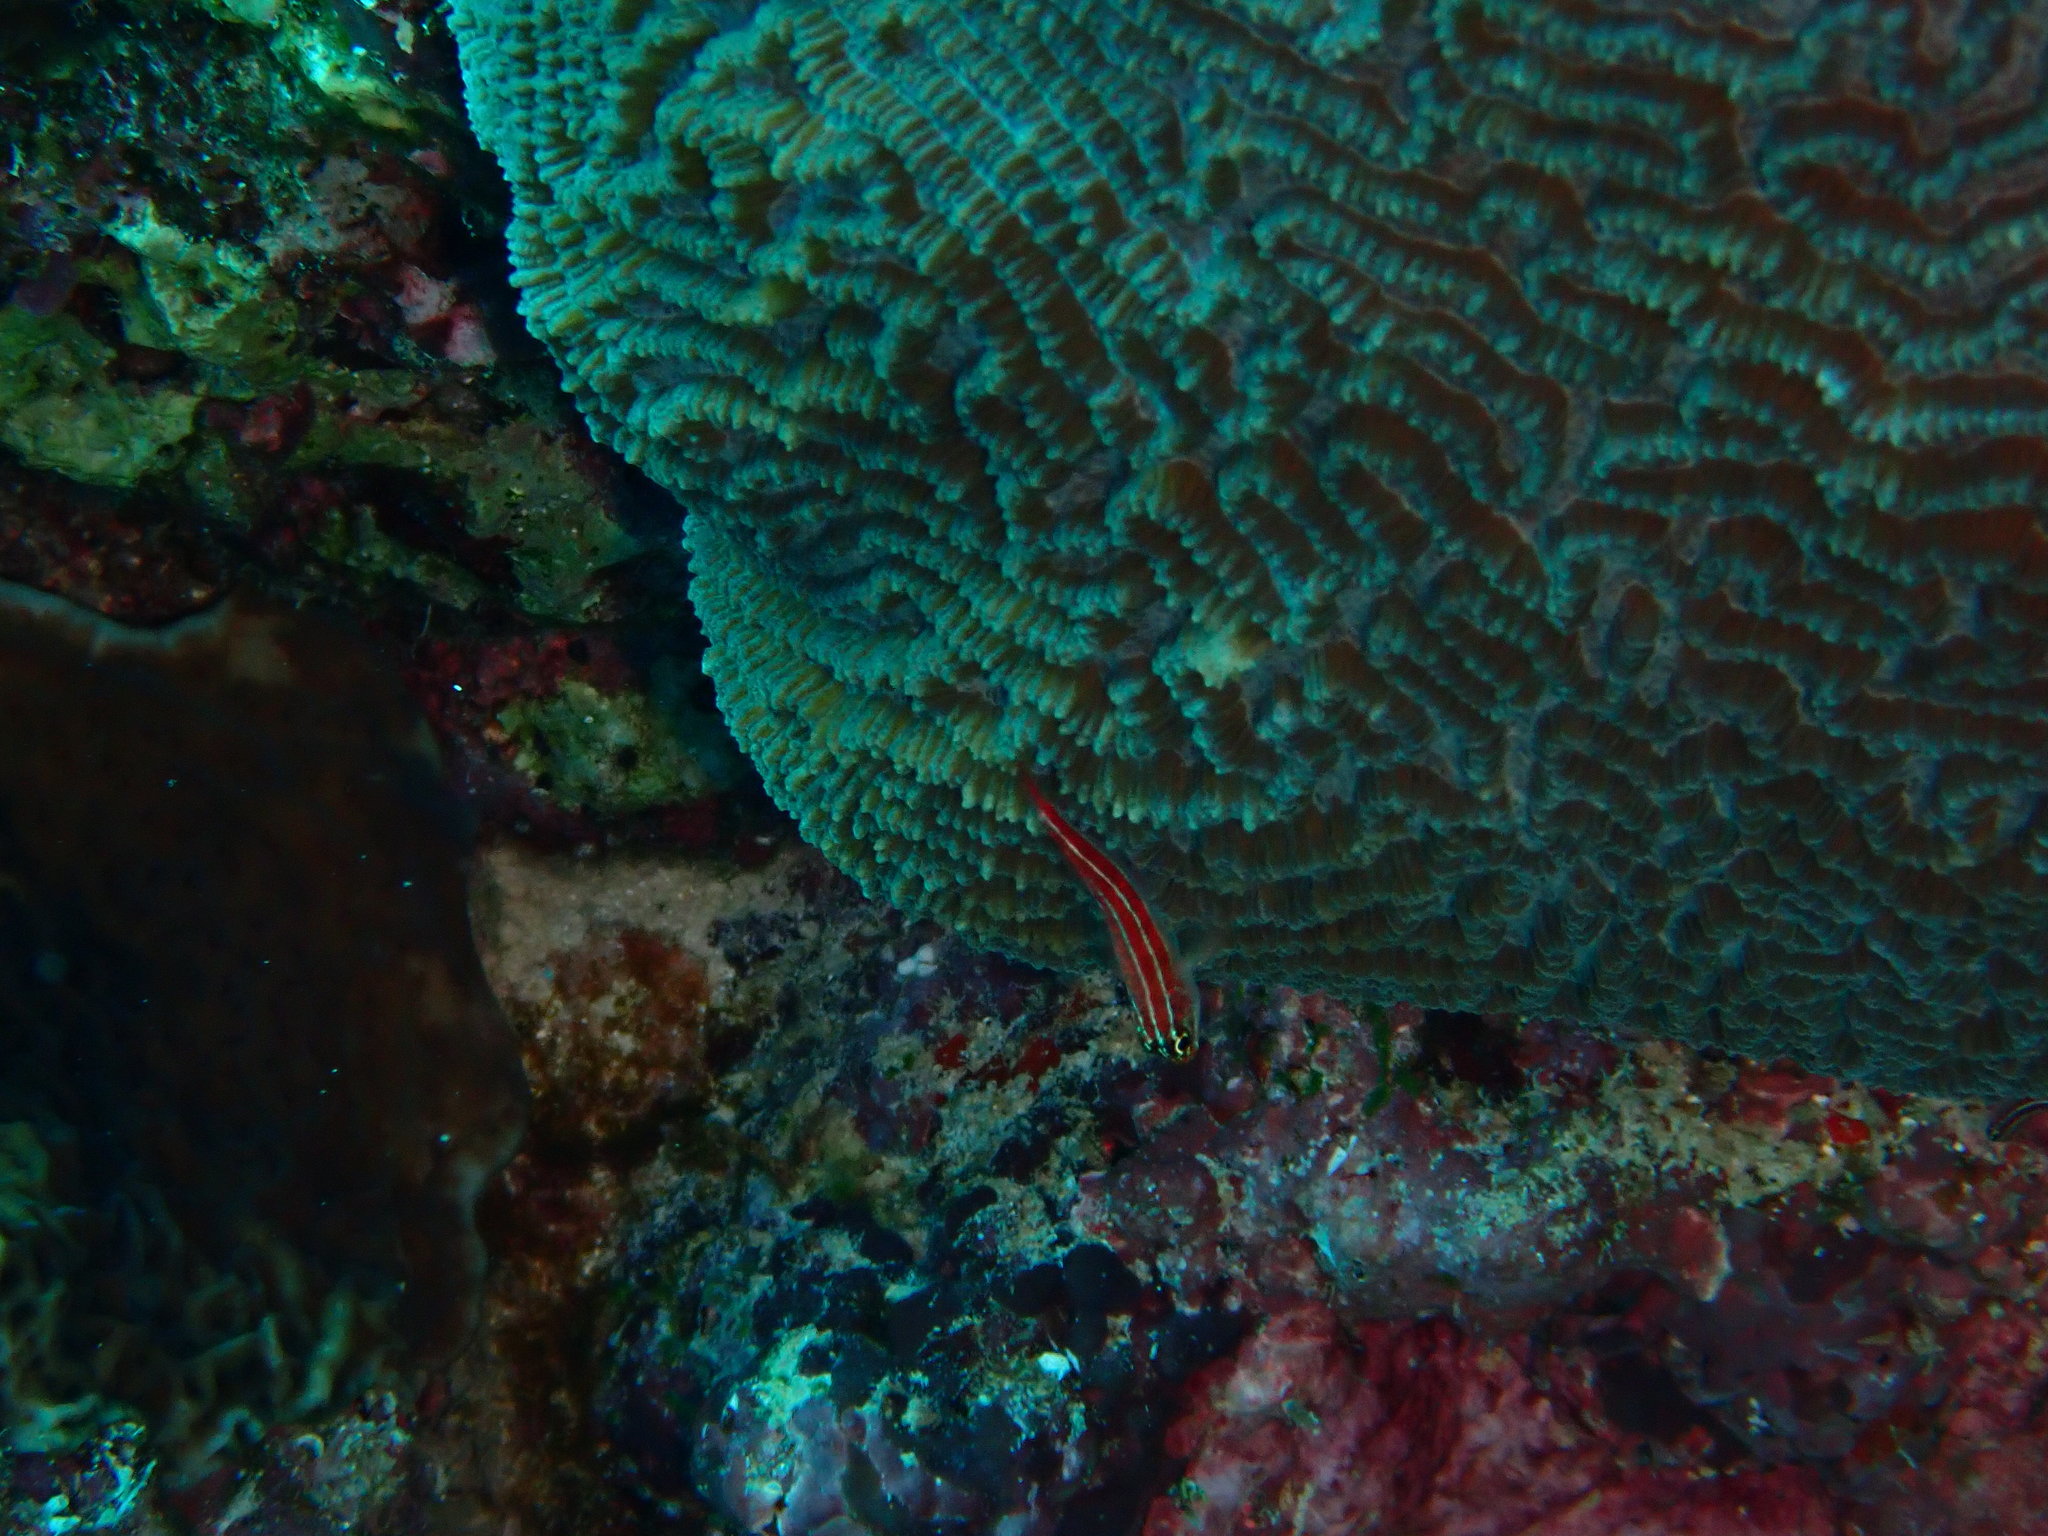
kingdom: Animalia
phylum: Chordata
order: Perciformes
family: Tripterygiidae
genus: Helcogramma
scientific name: Helcogramma striata
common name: Striped threefin
